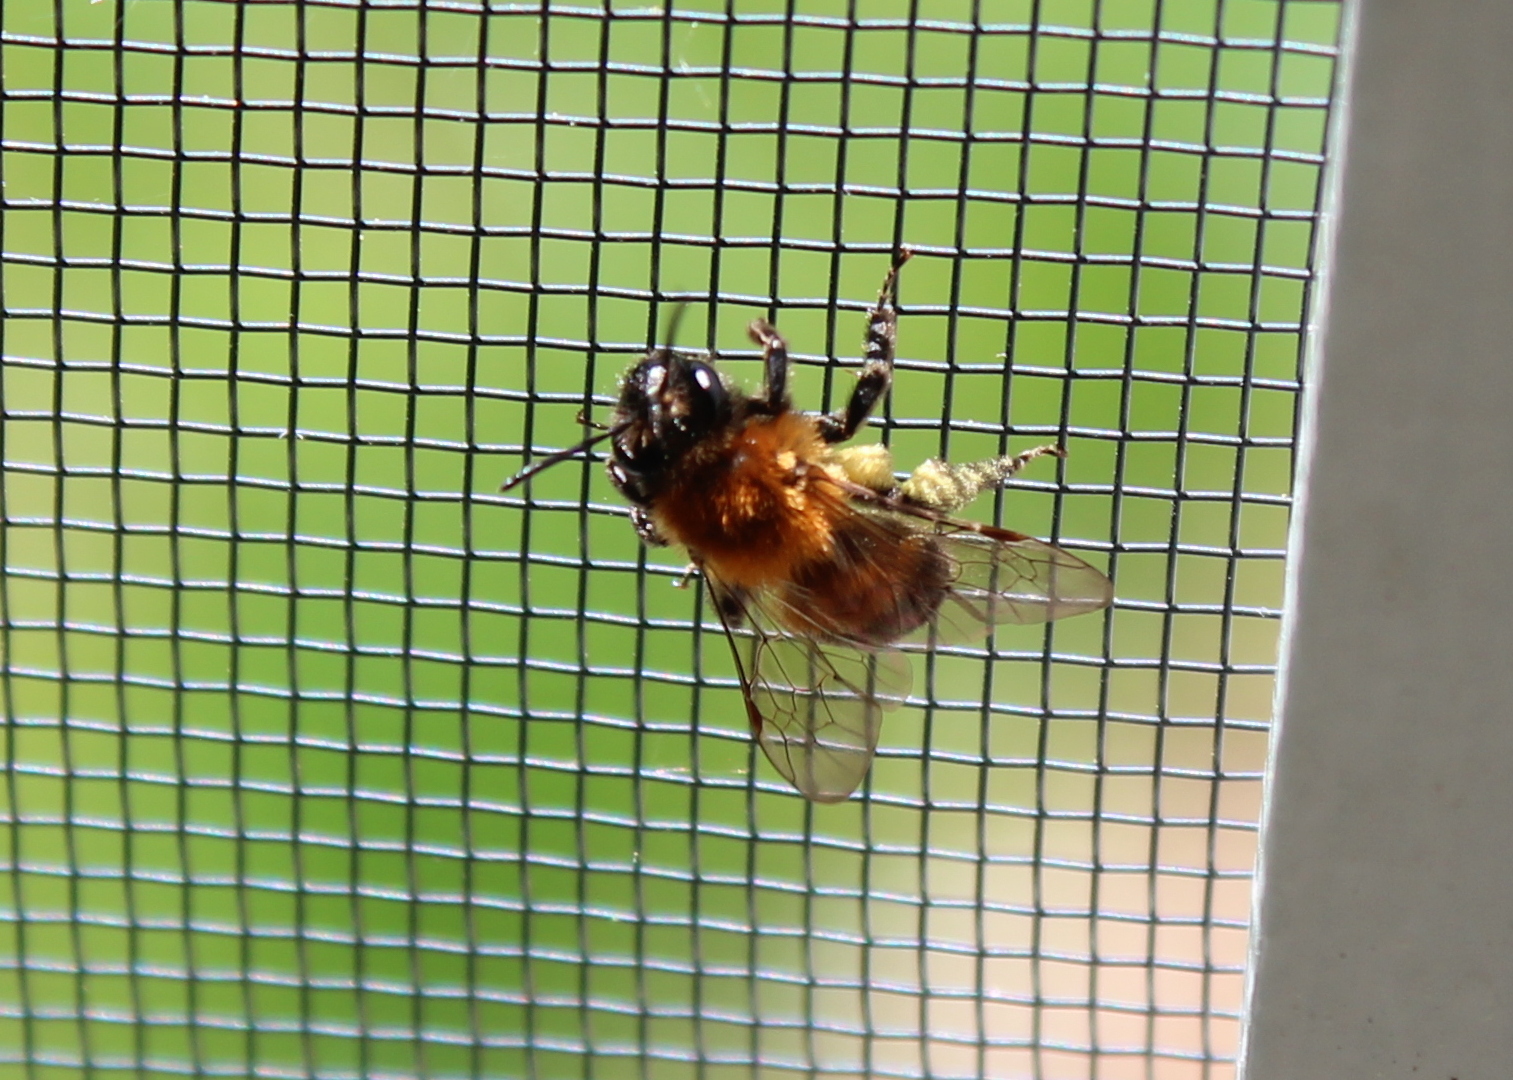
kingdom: Animalia
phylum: Arthropoda
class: Insecta
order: Hymenoptera
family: Andrenidae
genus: Andrena
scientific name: Andrena milwaukeensis
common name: Milwaukee mining bee
